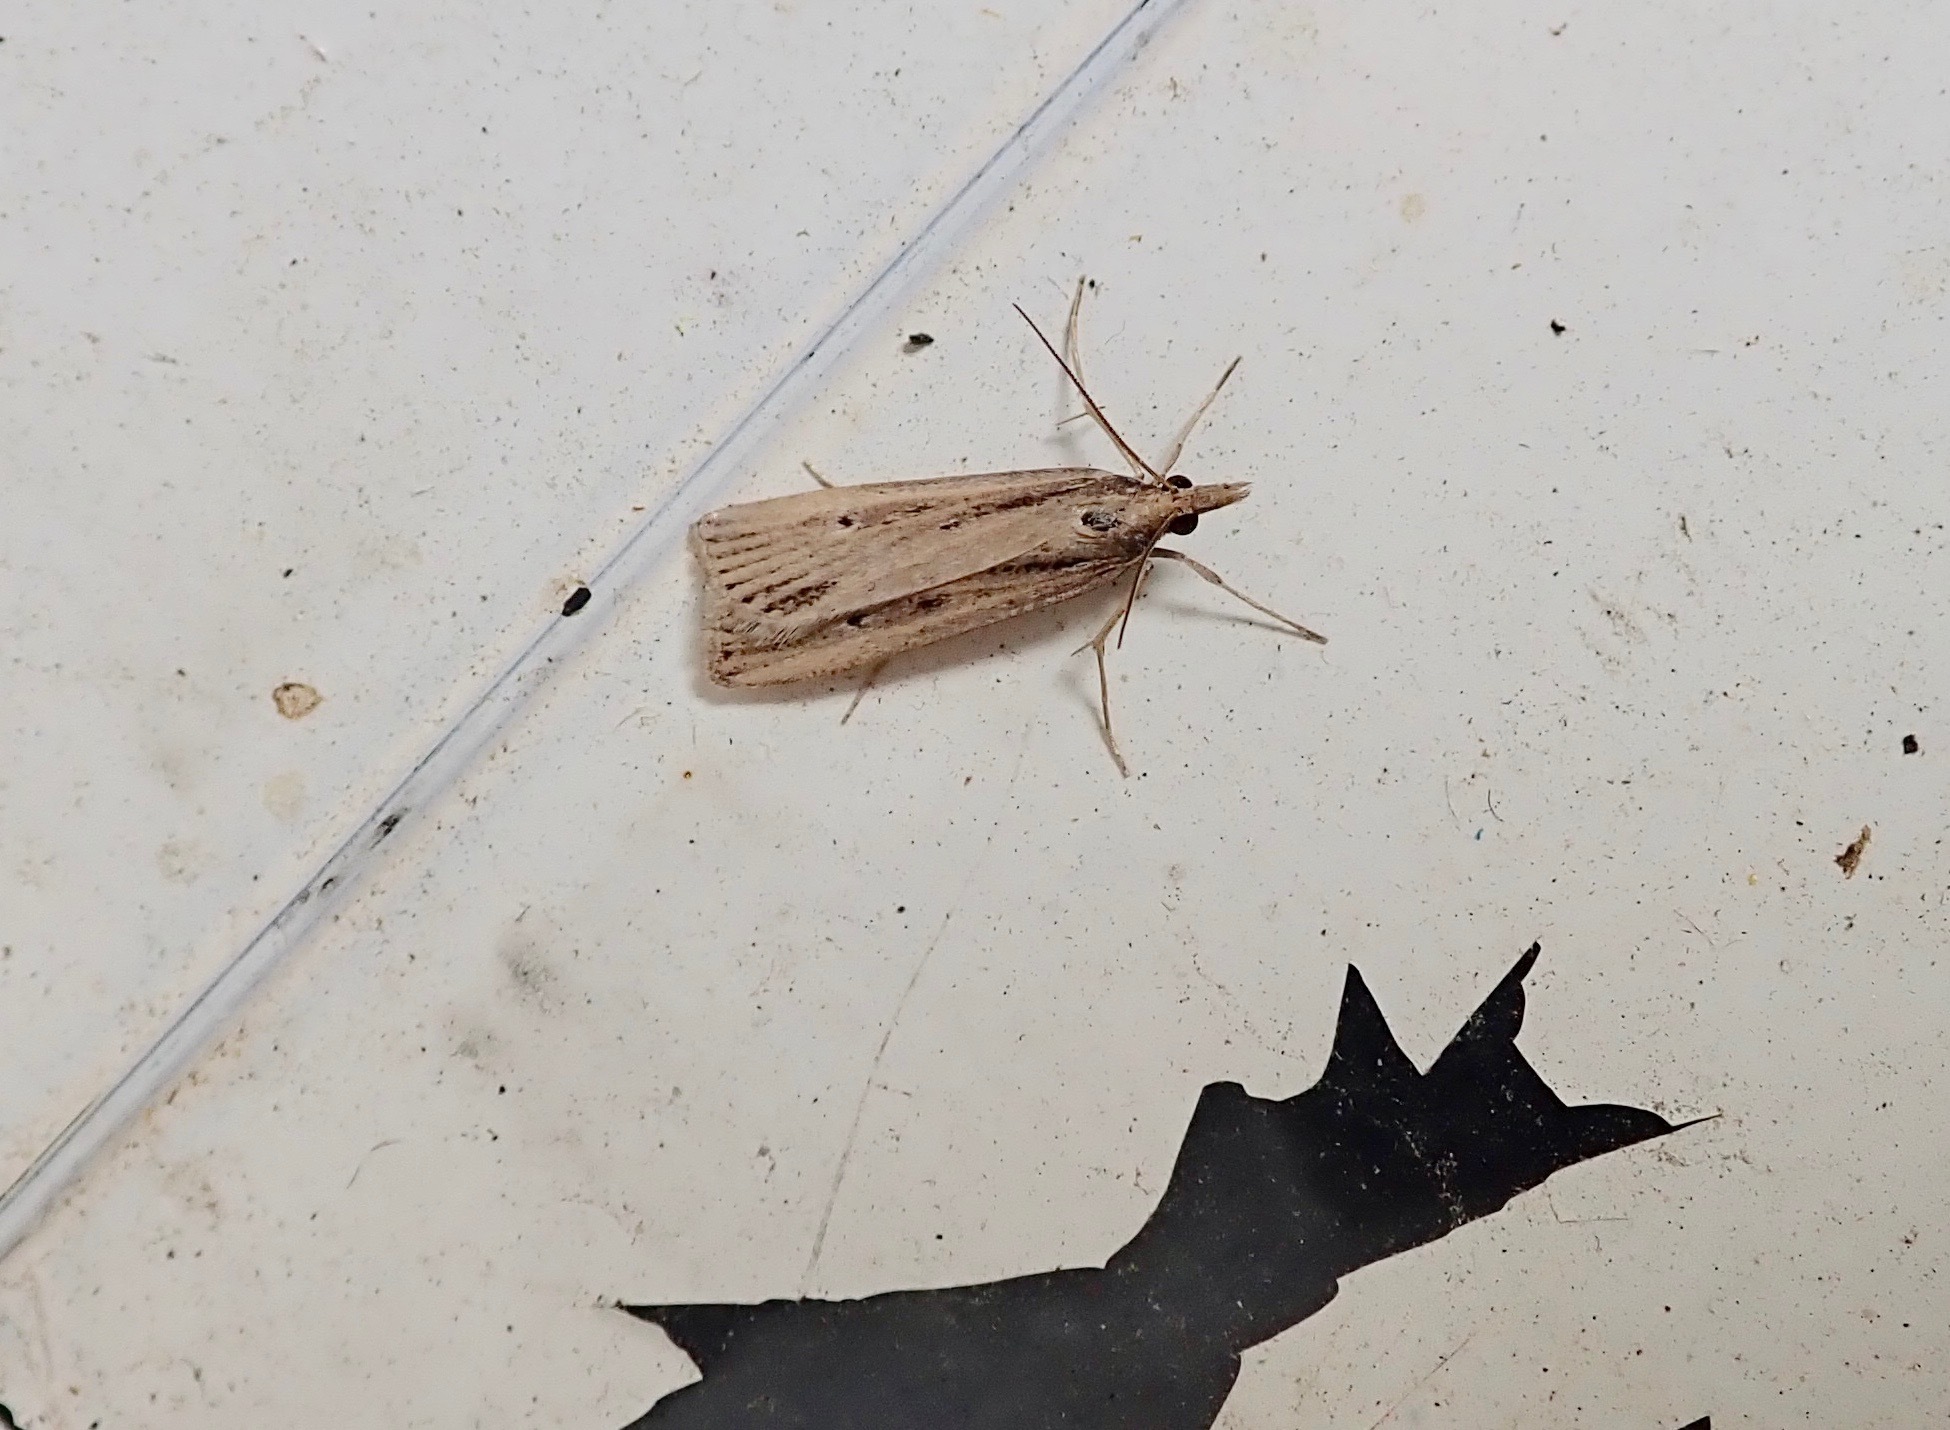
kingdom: Animalia
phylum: Arthropoda
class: Insecta
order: Lepidoptera
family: Crambidae
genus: Eudonia
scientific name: Eudonia sabulosella
